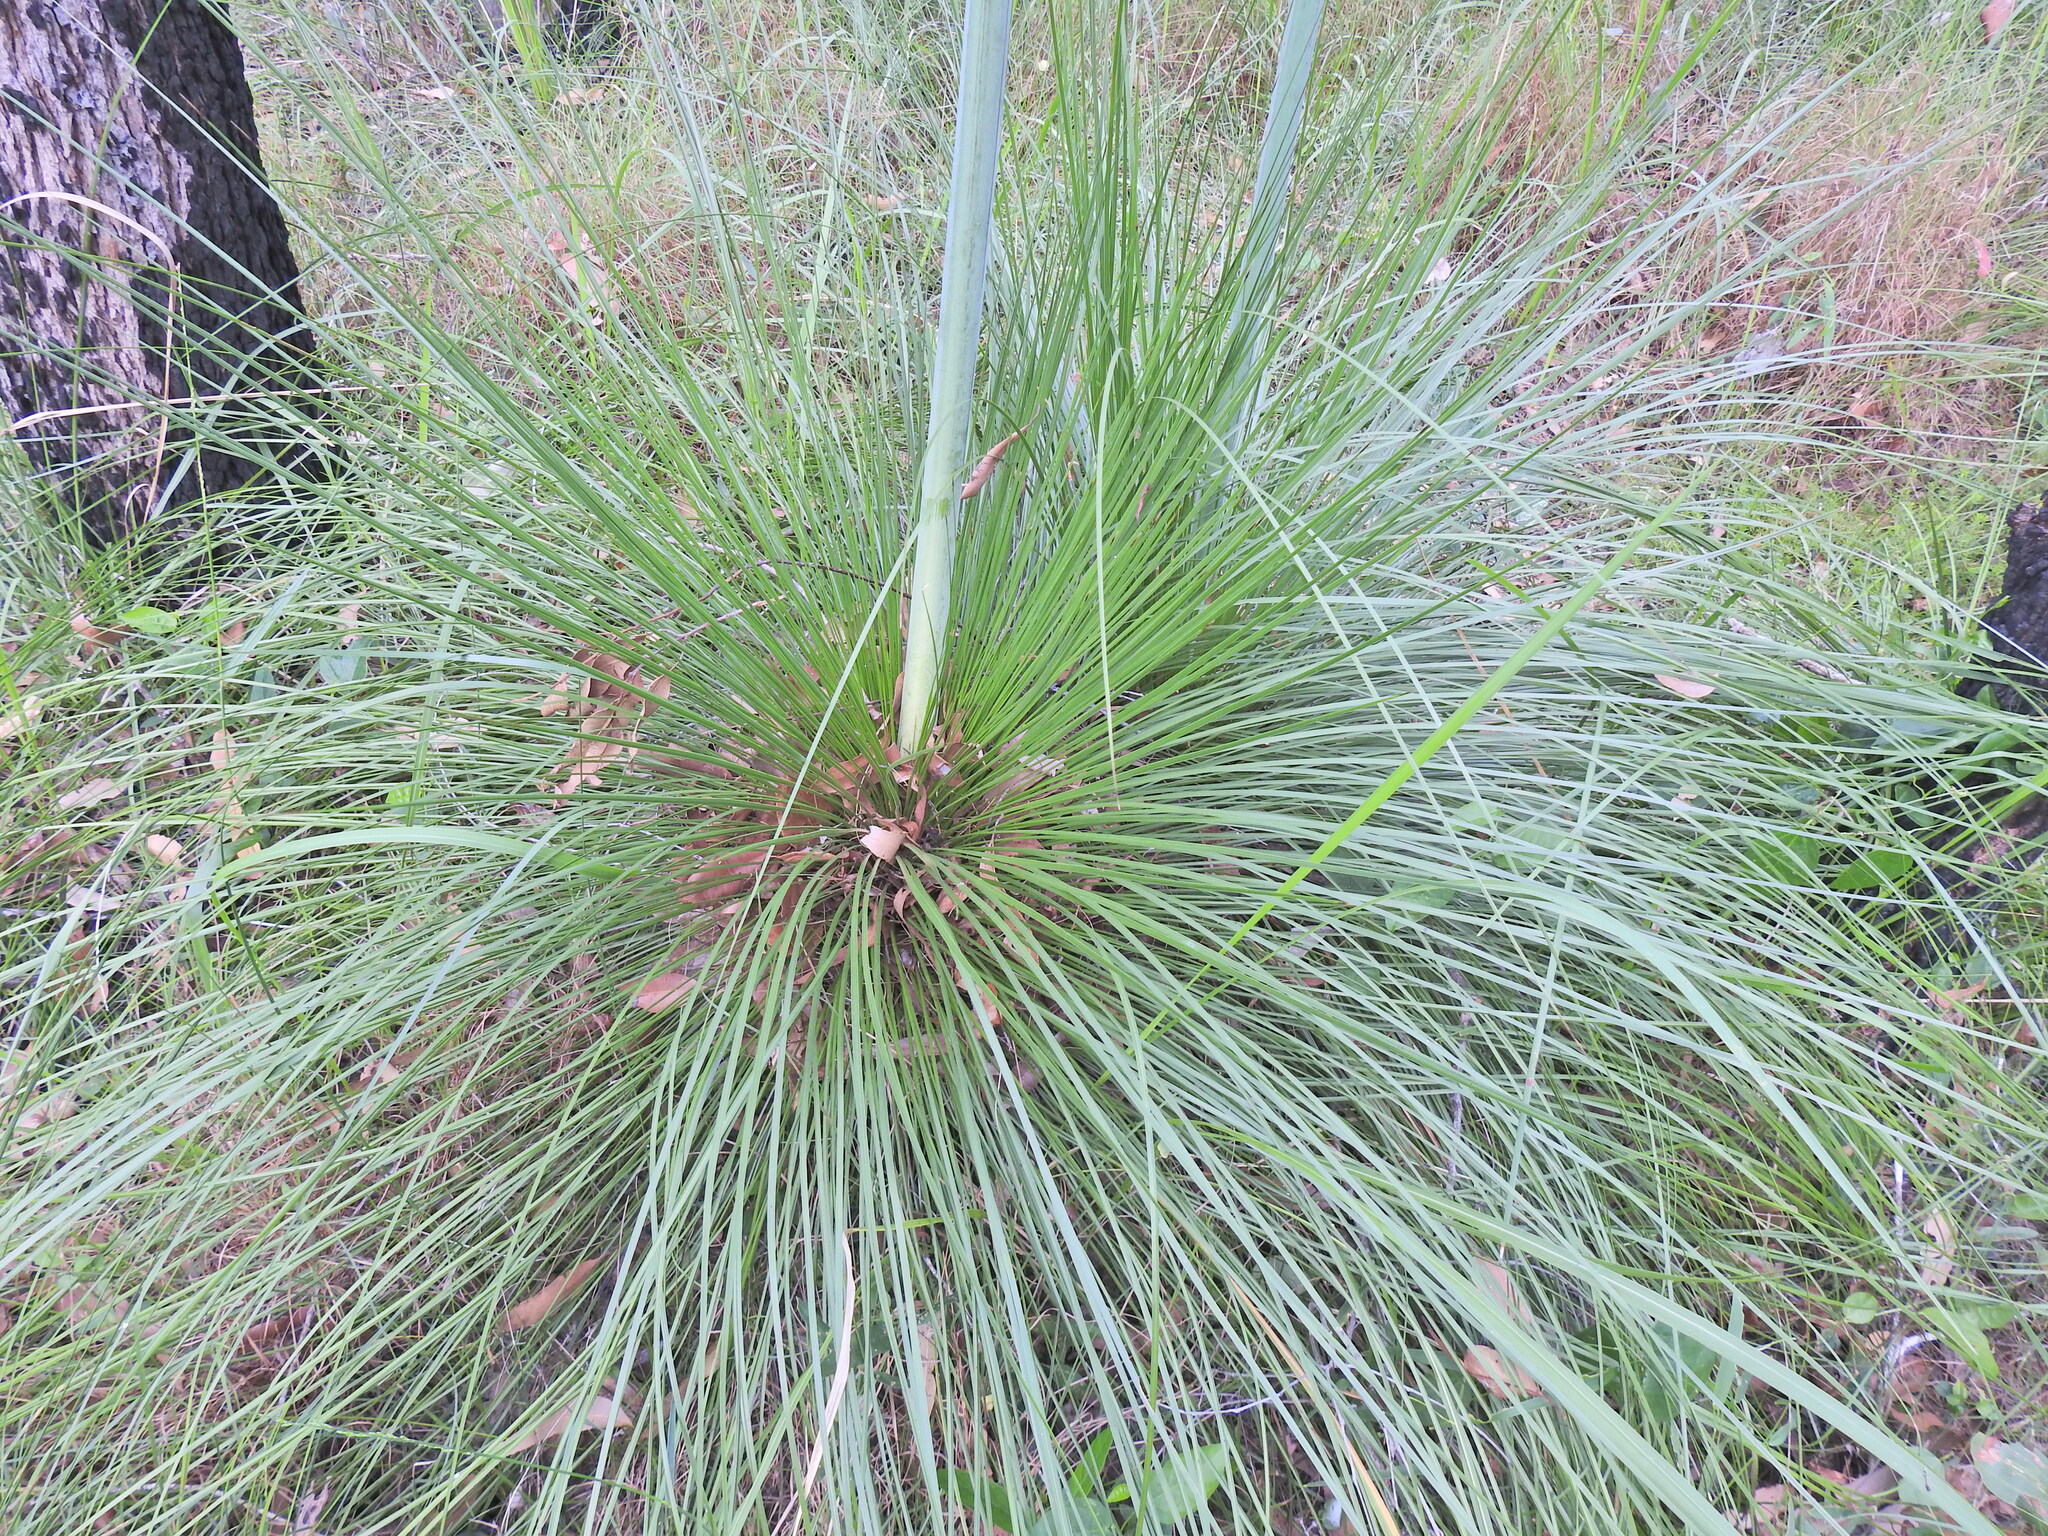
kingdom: Plantae
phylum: Tracheophyta
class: Liliopsida
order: Asparagales
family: Asphodelaceae
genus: Xanthorrhoea
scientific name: Xanthorrhoea latifolia
